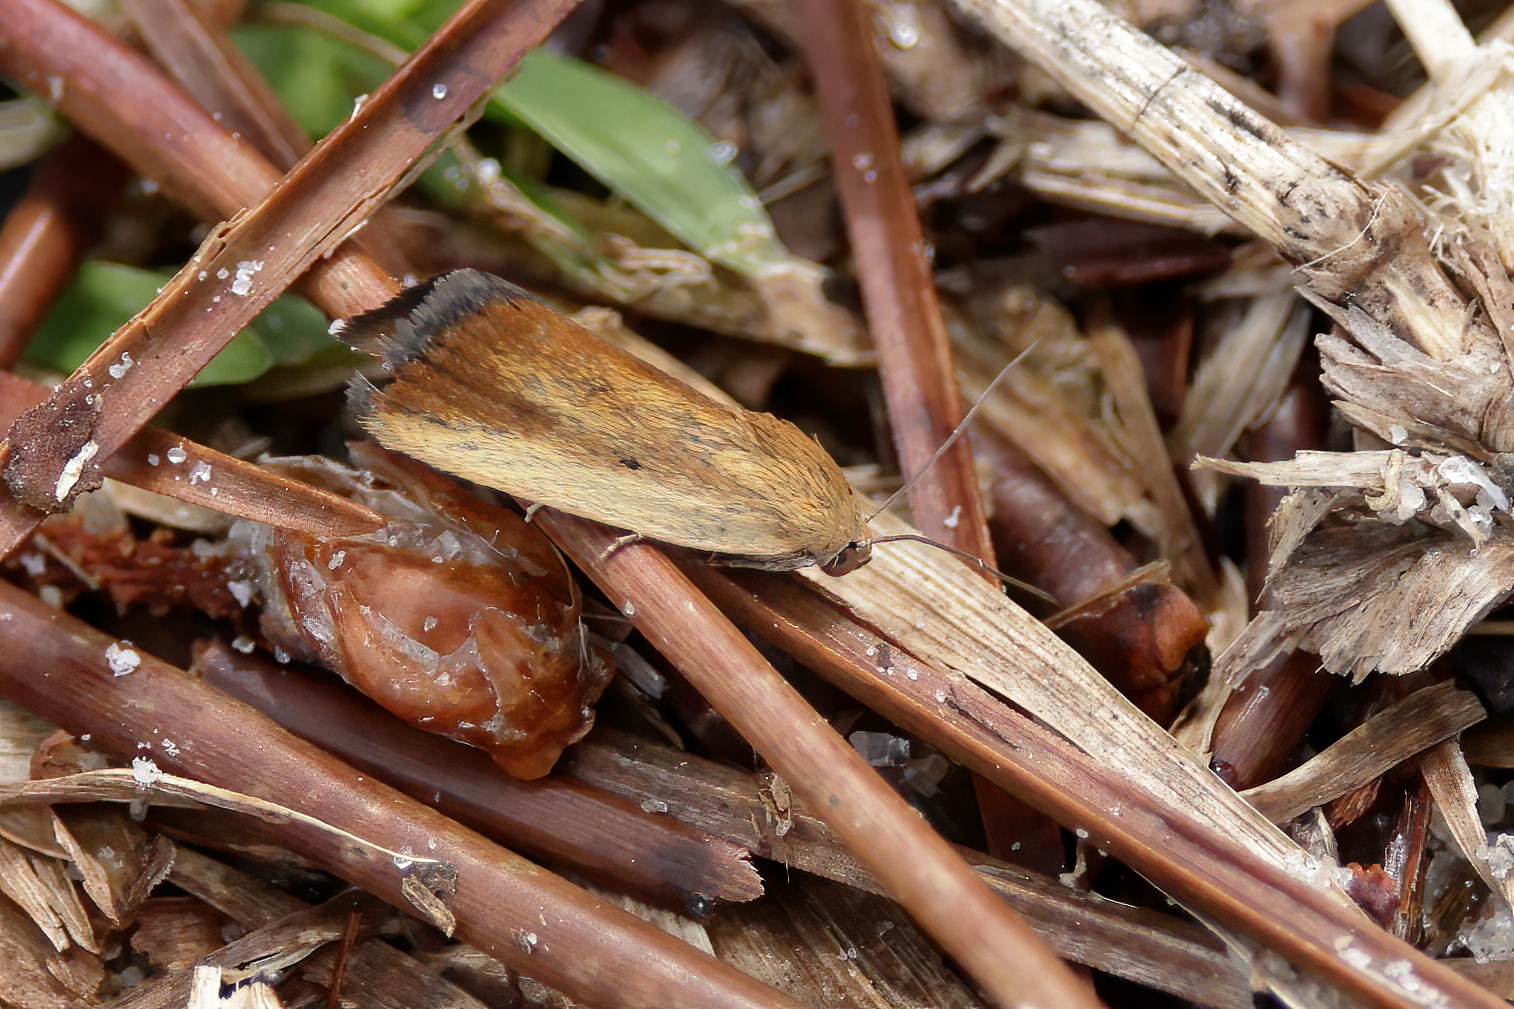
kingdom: Animalia
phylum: Arthropoda
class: Insecta
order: Lepidoptera
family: Noctuidae
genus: Acontia
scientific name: Acontia parvula
